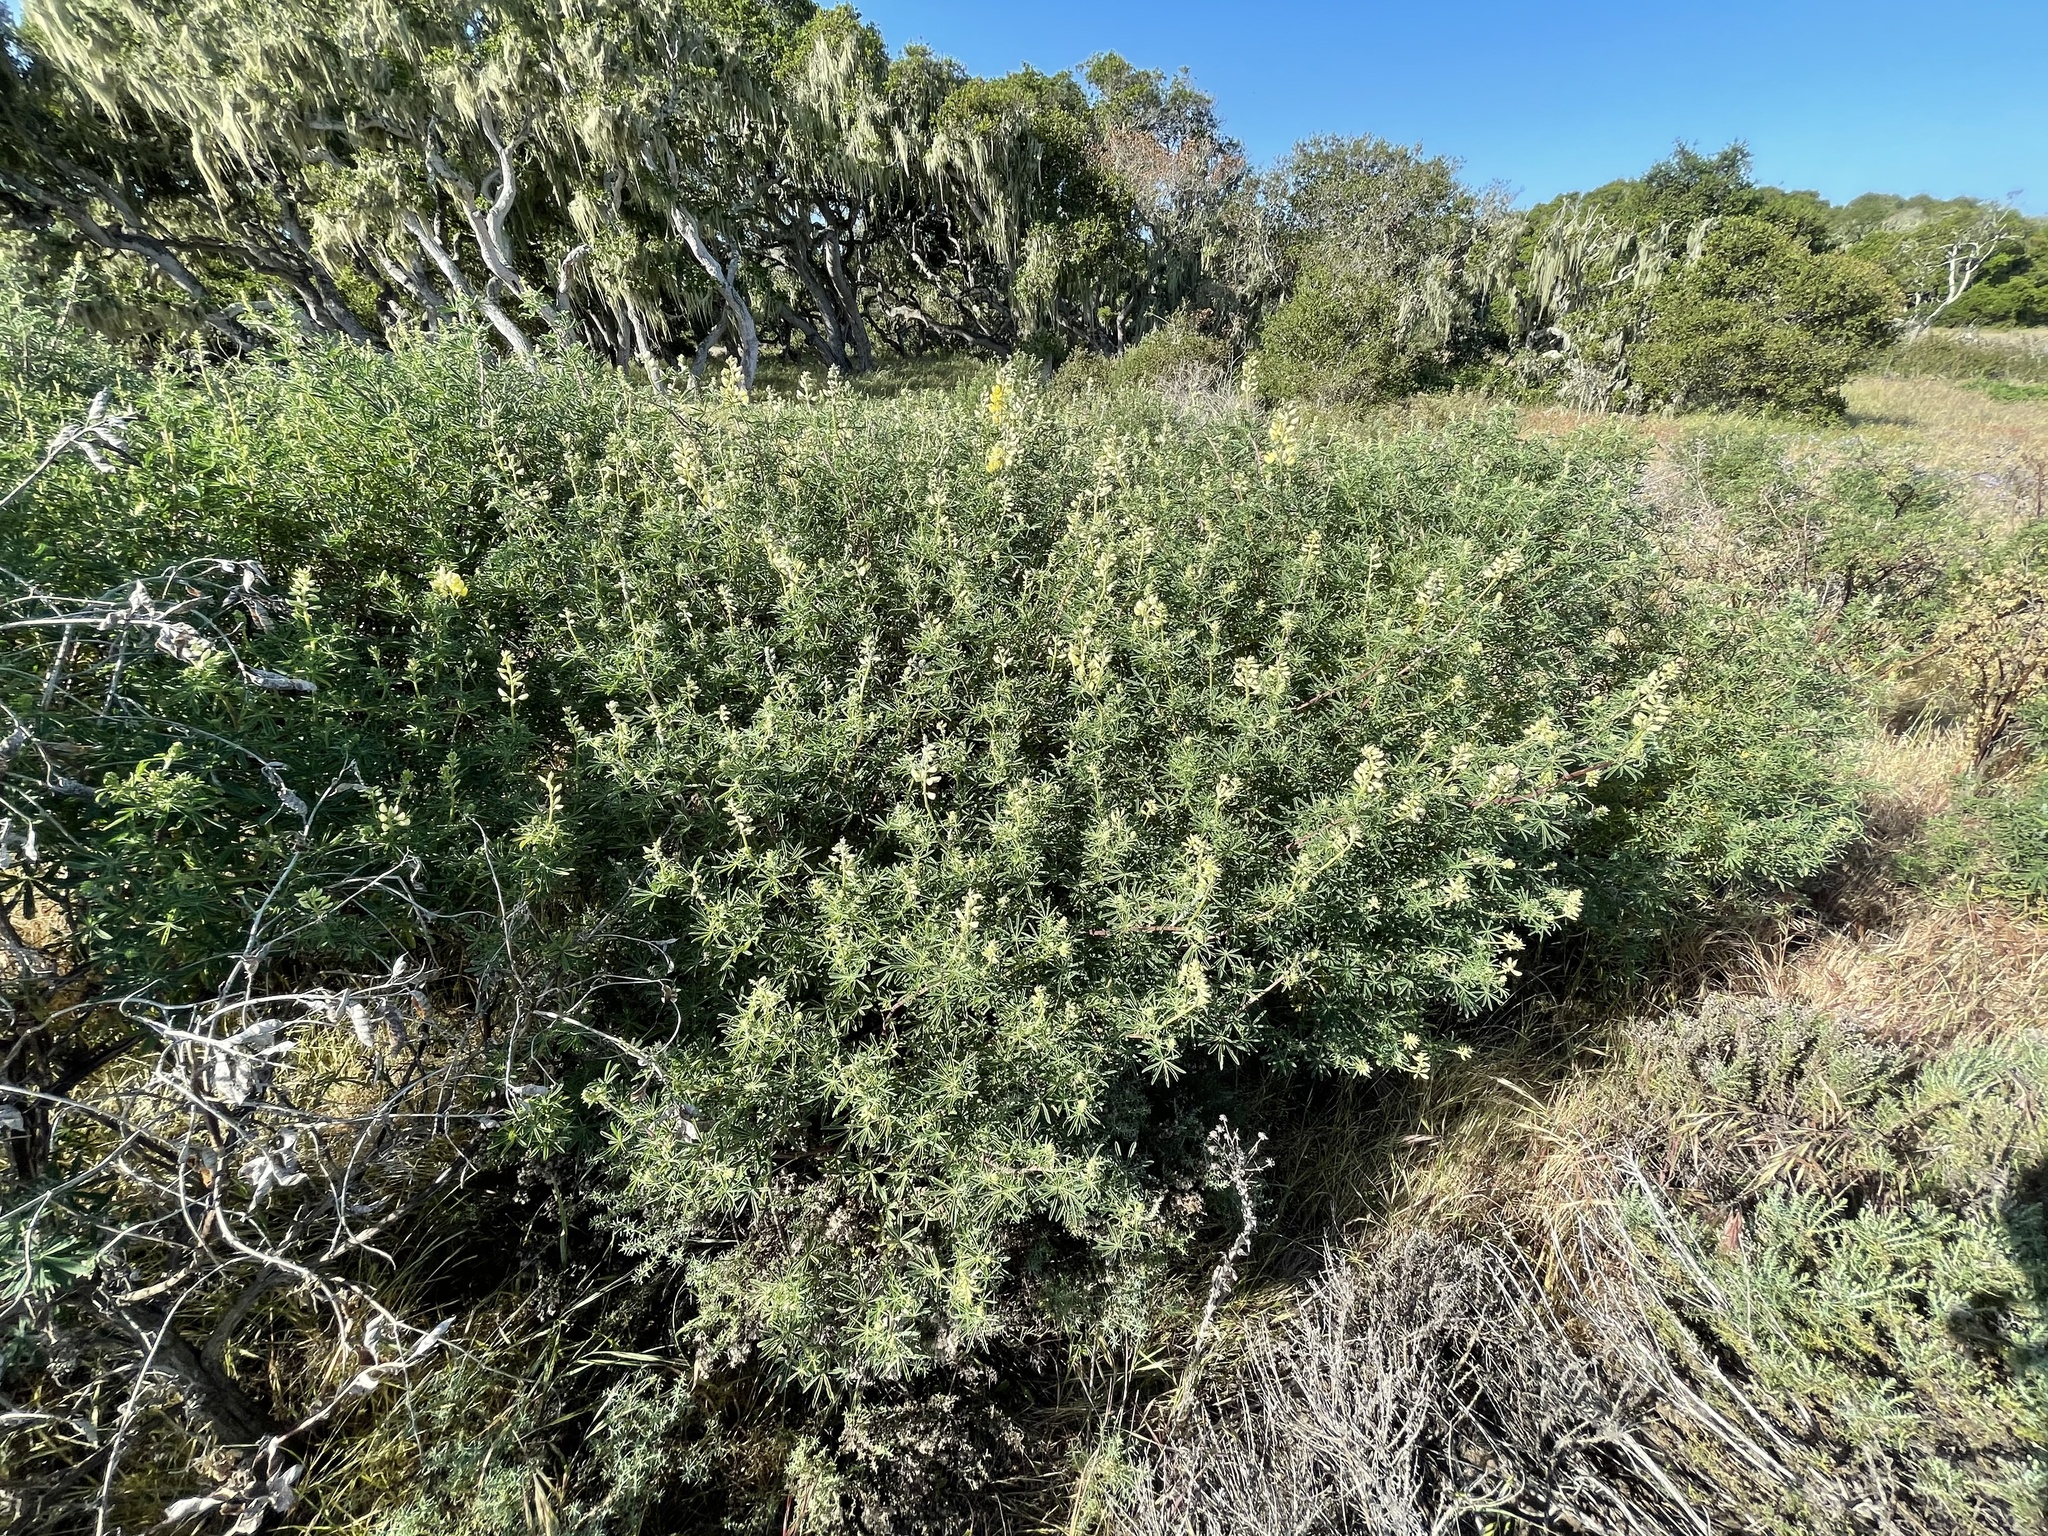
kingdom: Plantae
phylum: Tracheophyta
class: Magnoliopsida
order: Fabales
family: Fabaceae
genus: Lupinus
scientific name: Lupinus arboreus
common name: Yellow bush lupine
